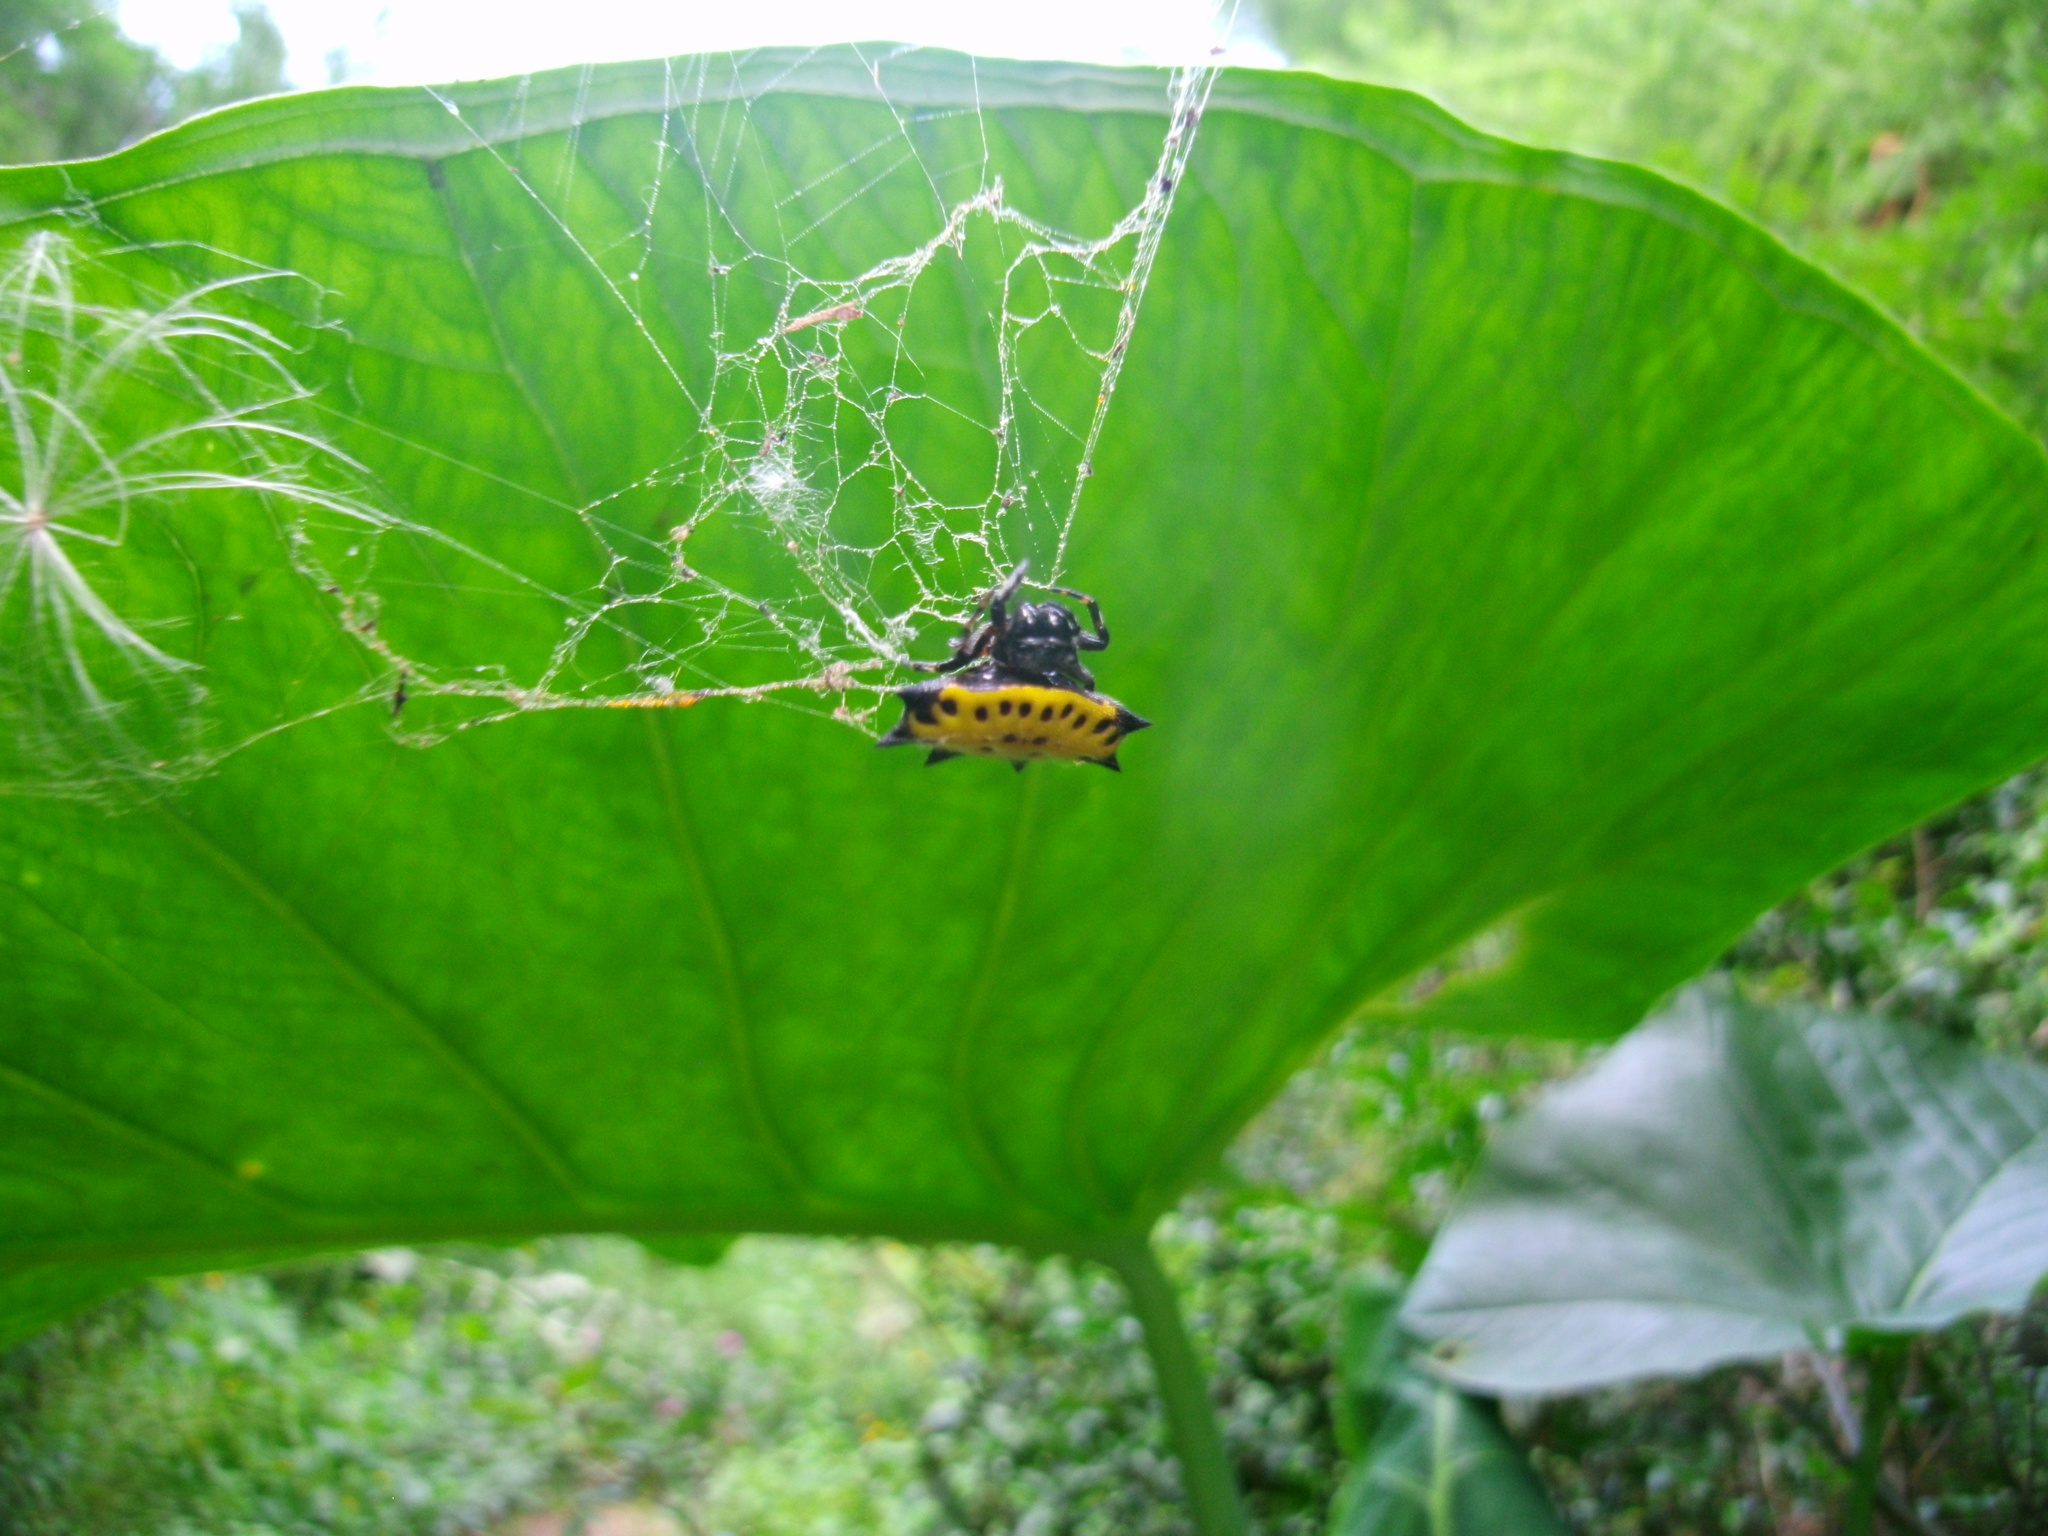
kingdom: Animalia
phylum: Arthropoda
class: Arachnida
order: Araneae
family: Araneidae
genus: Gasteracantha
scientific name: Gasteracantha cancriformis
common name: Orb weavers
